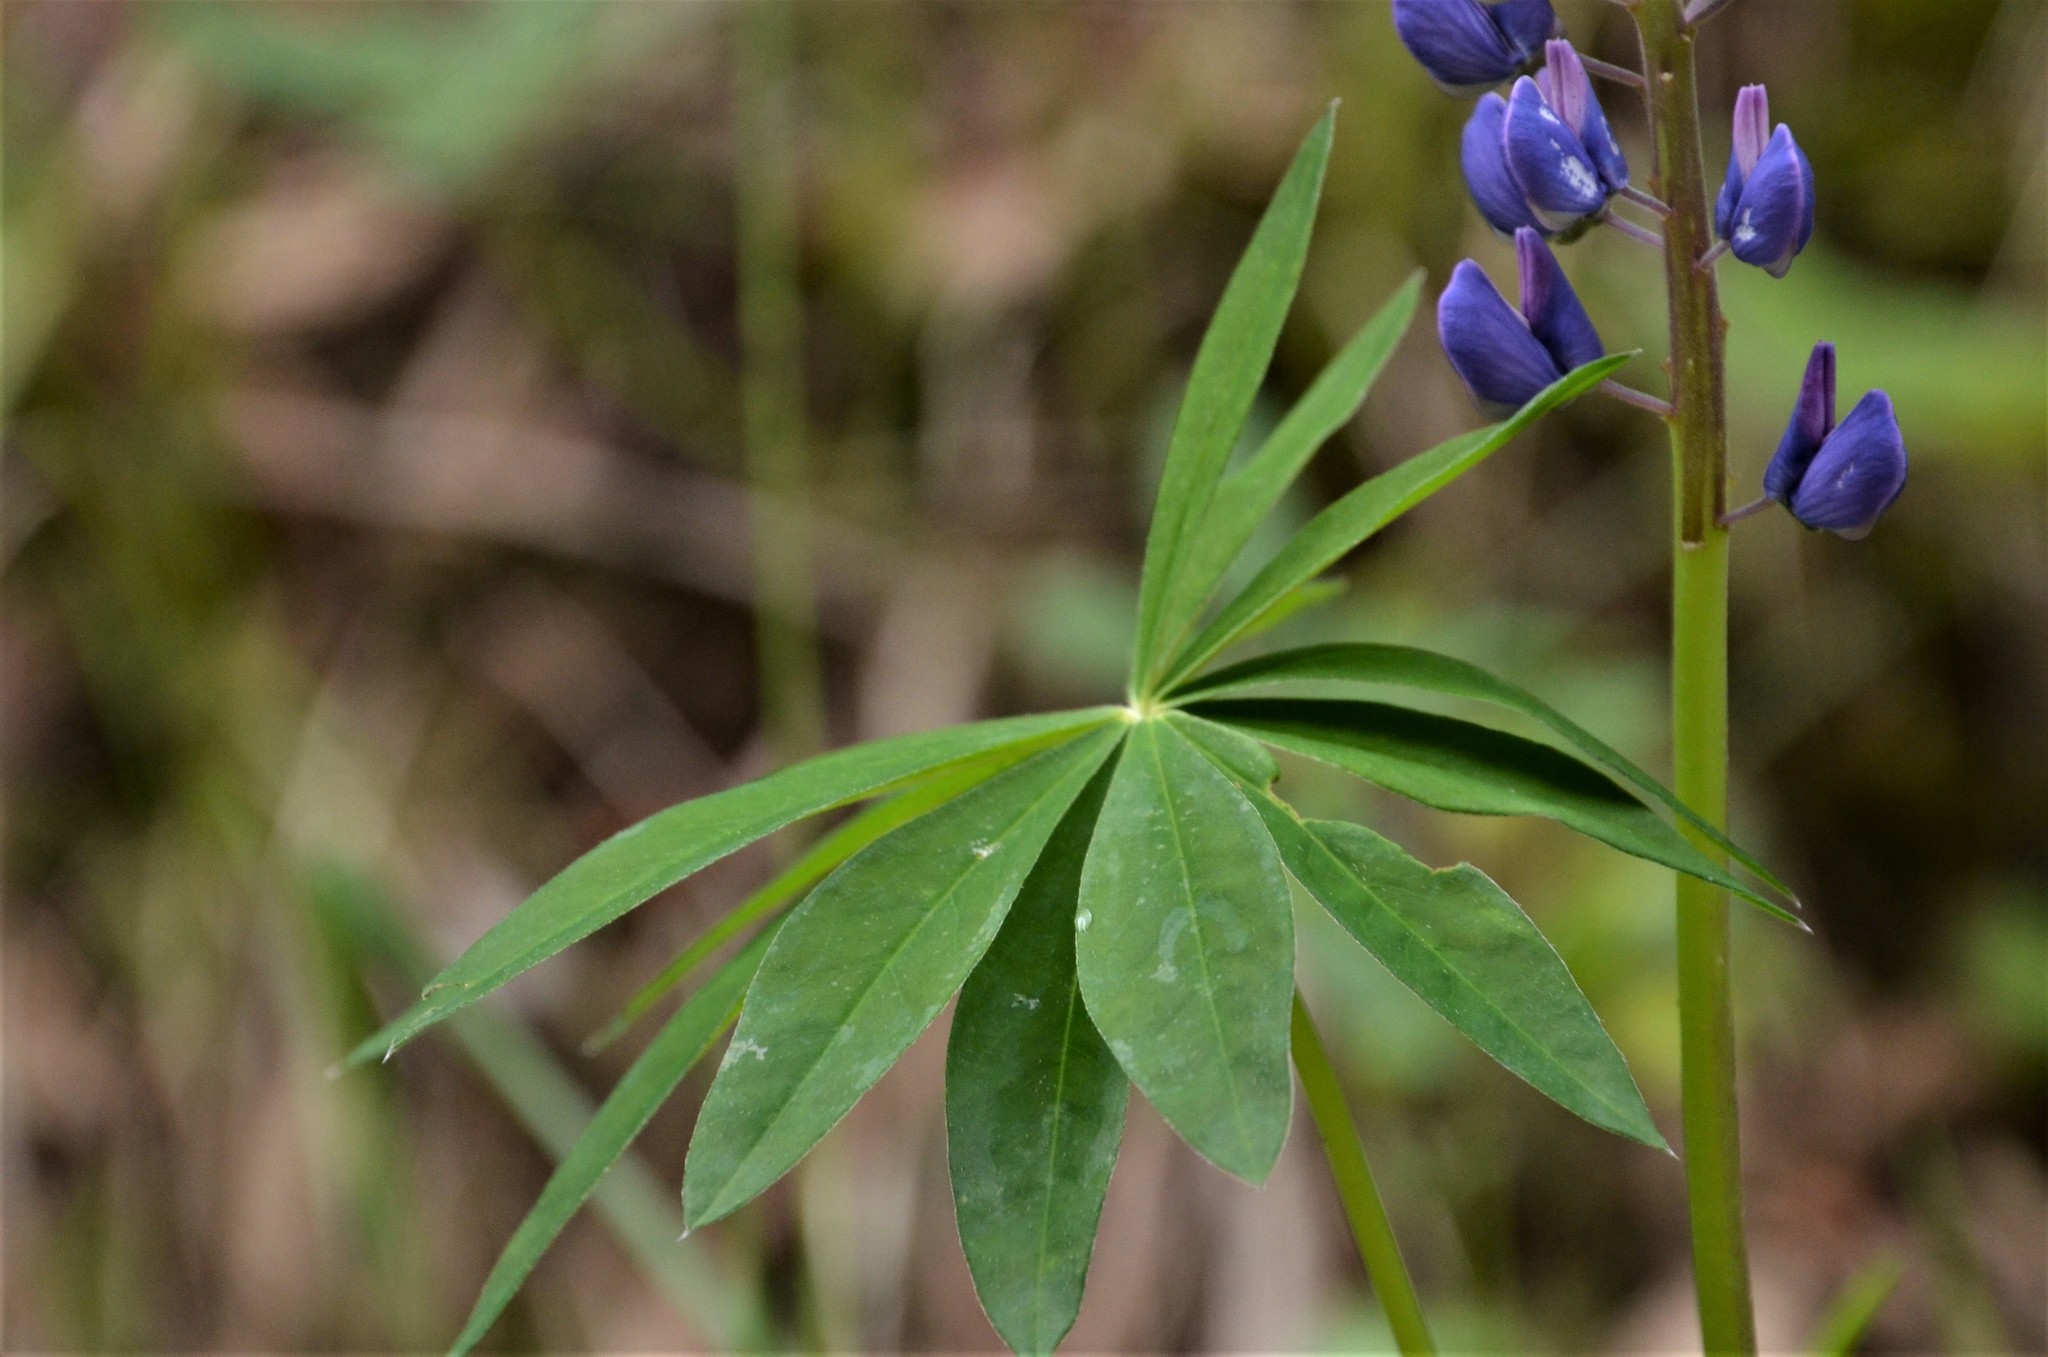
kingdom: Plantae
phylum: Tracheophyta
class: Magnoliopsida
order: Fabales
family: Fabaceae
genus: Lupinus
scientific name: Lupinus polyphyllus
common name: Garden lupin
